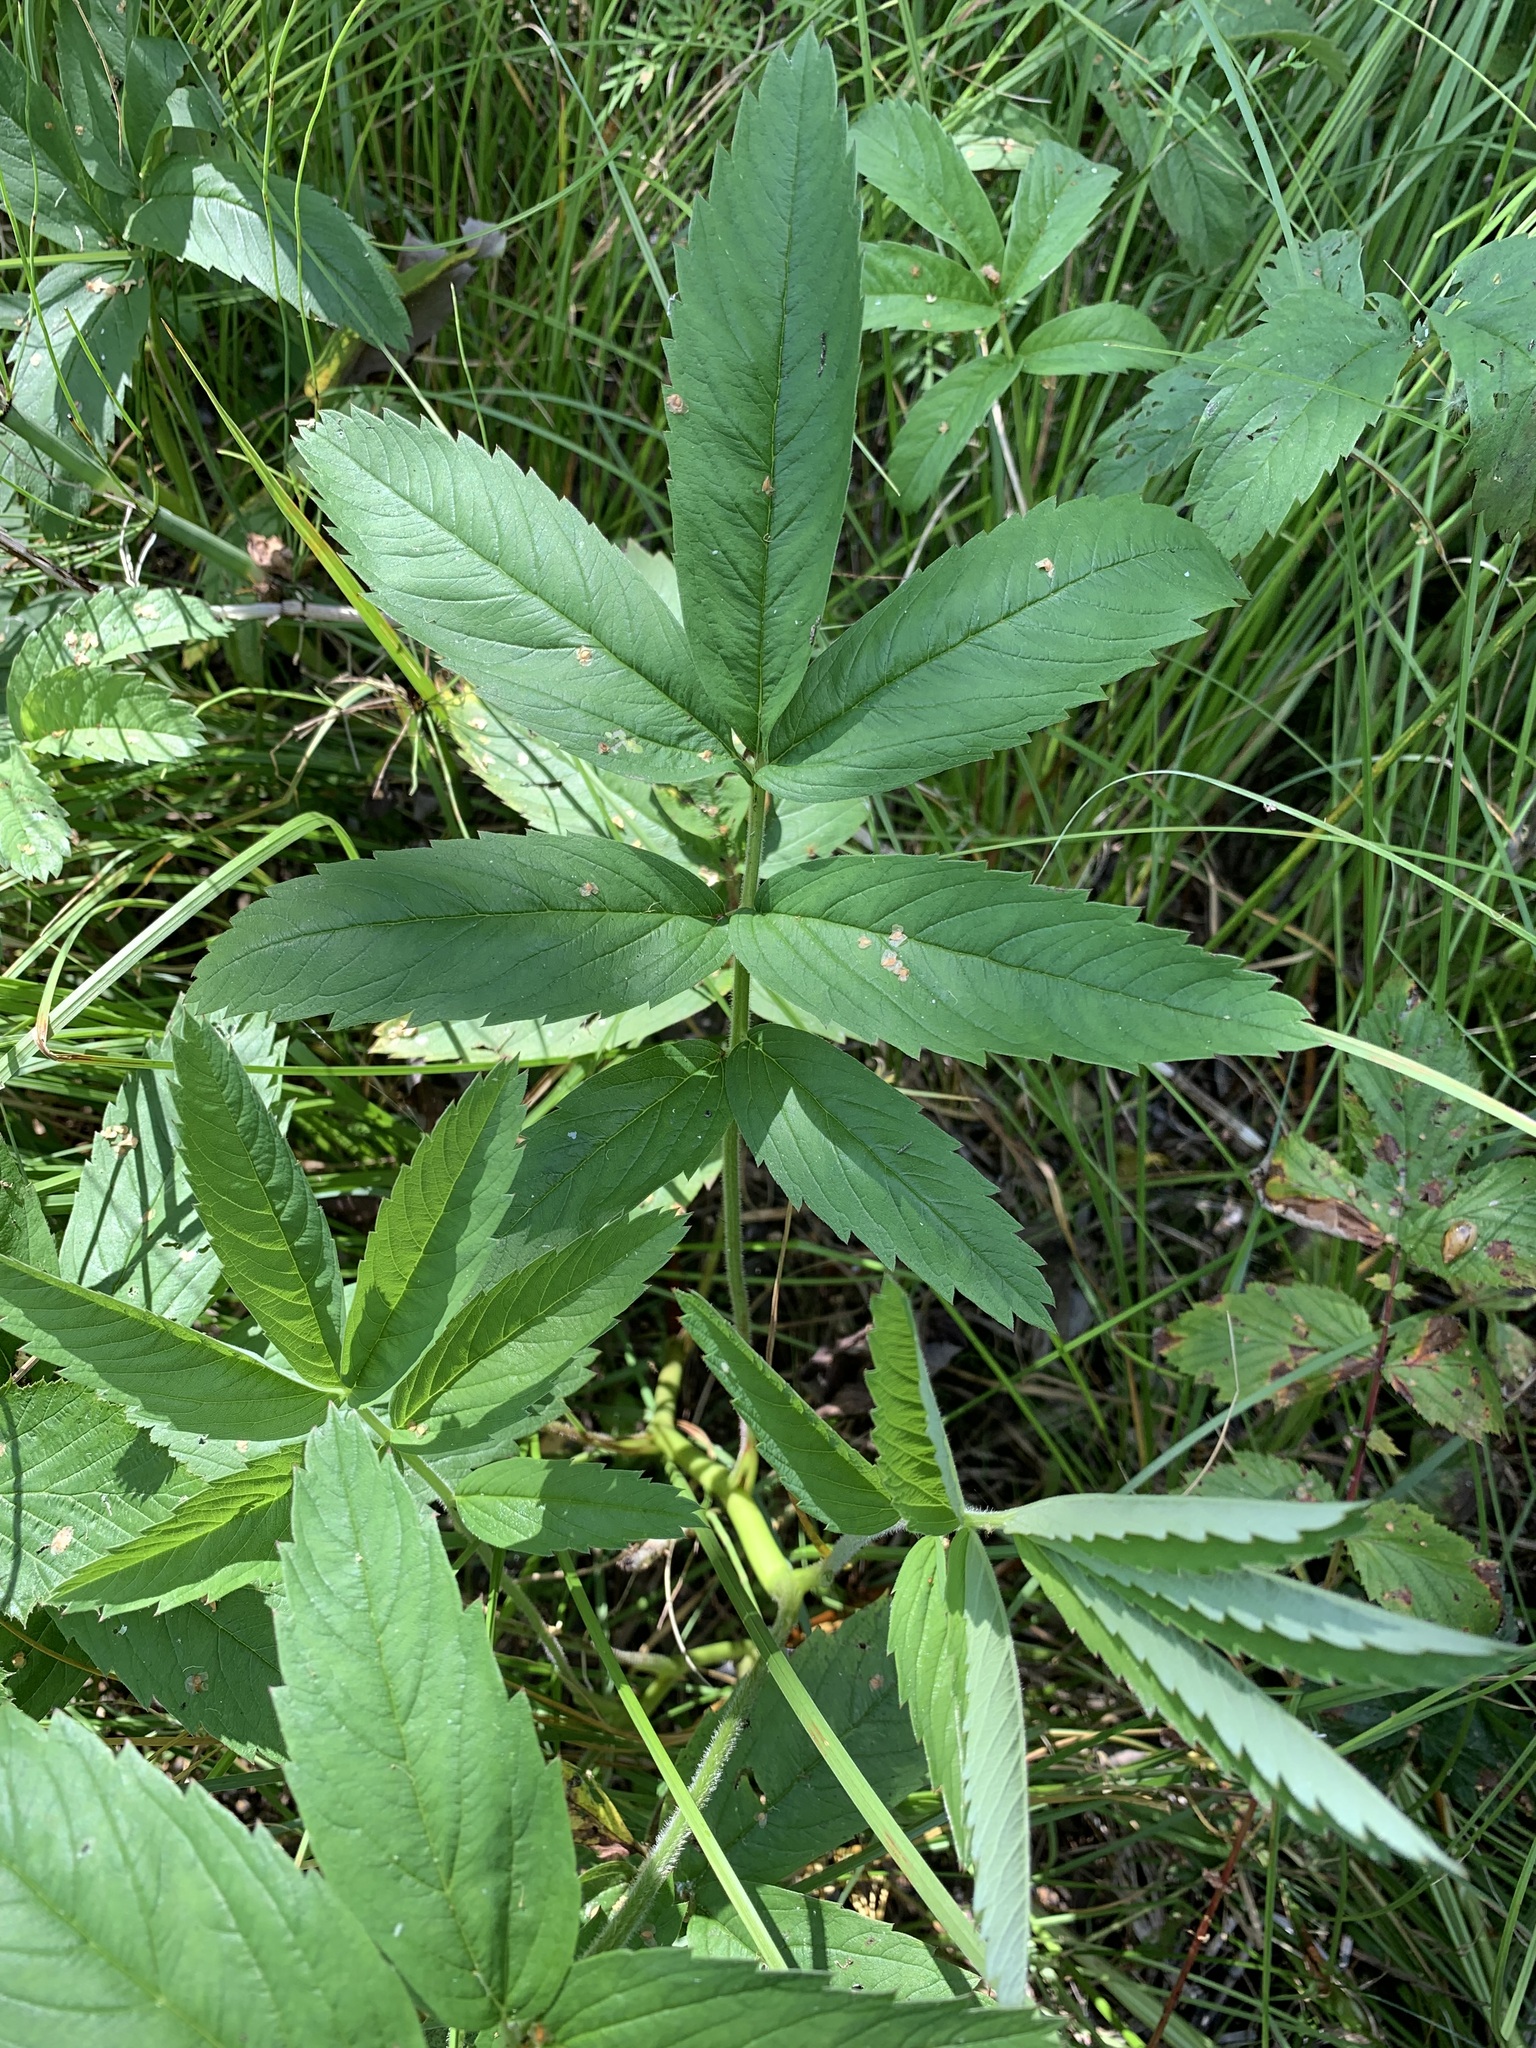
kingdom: Plantae
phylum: Tracheophyta
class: Magnoliopsida
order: Rosales
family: Rosaceae
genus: Comarum
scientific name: Comarum palustre
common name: Marsh cinquefoil
